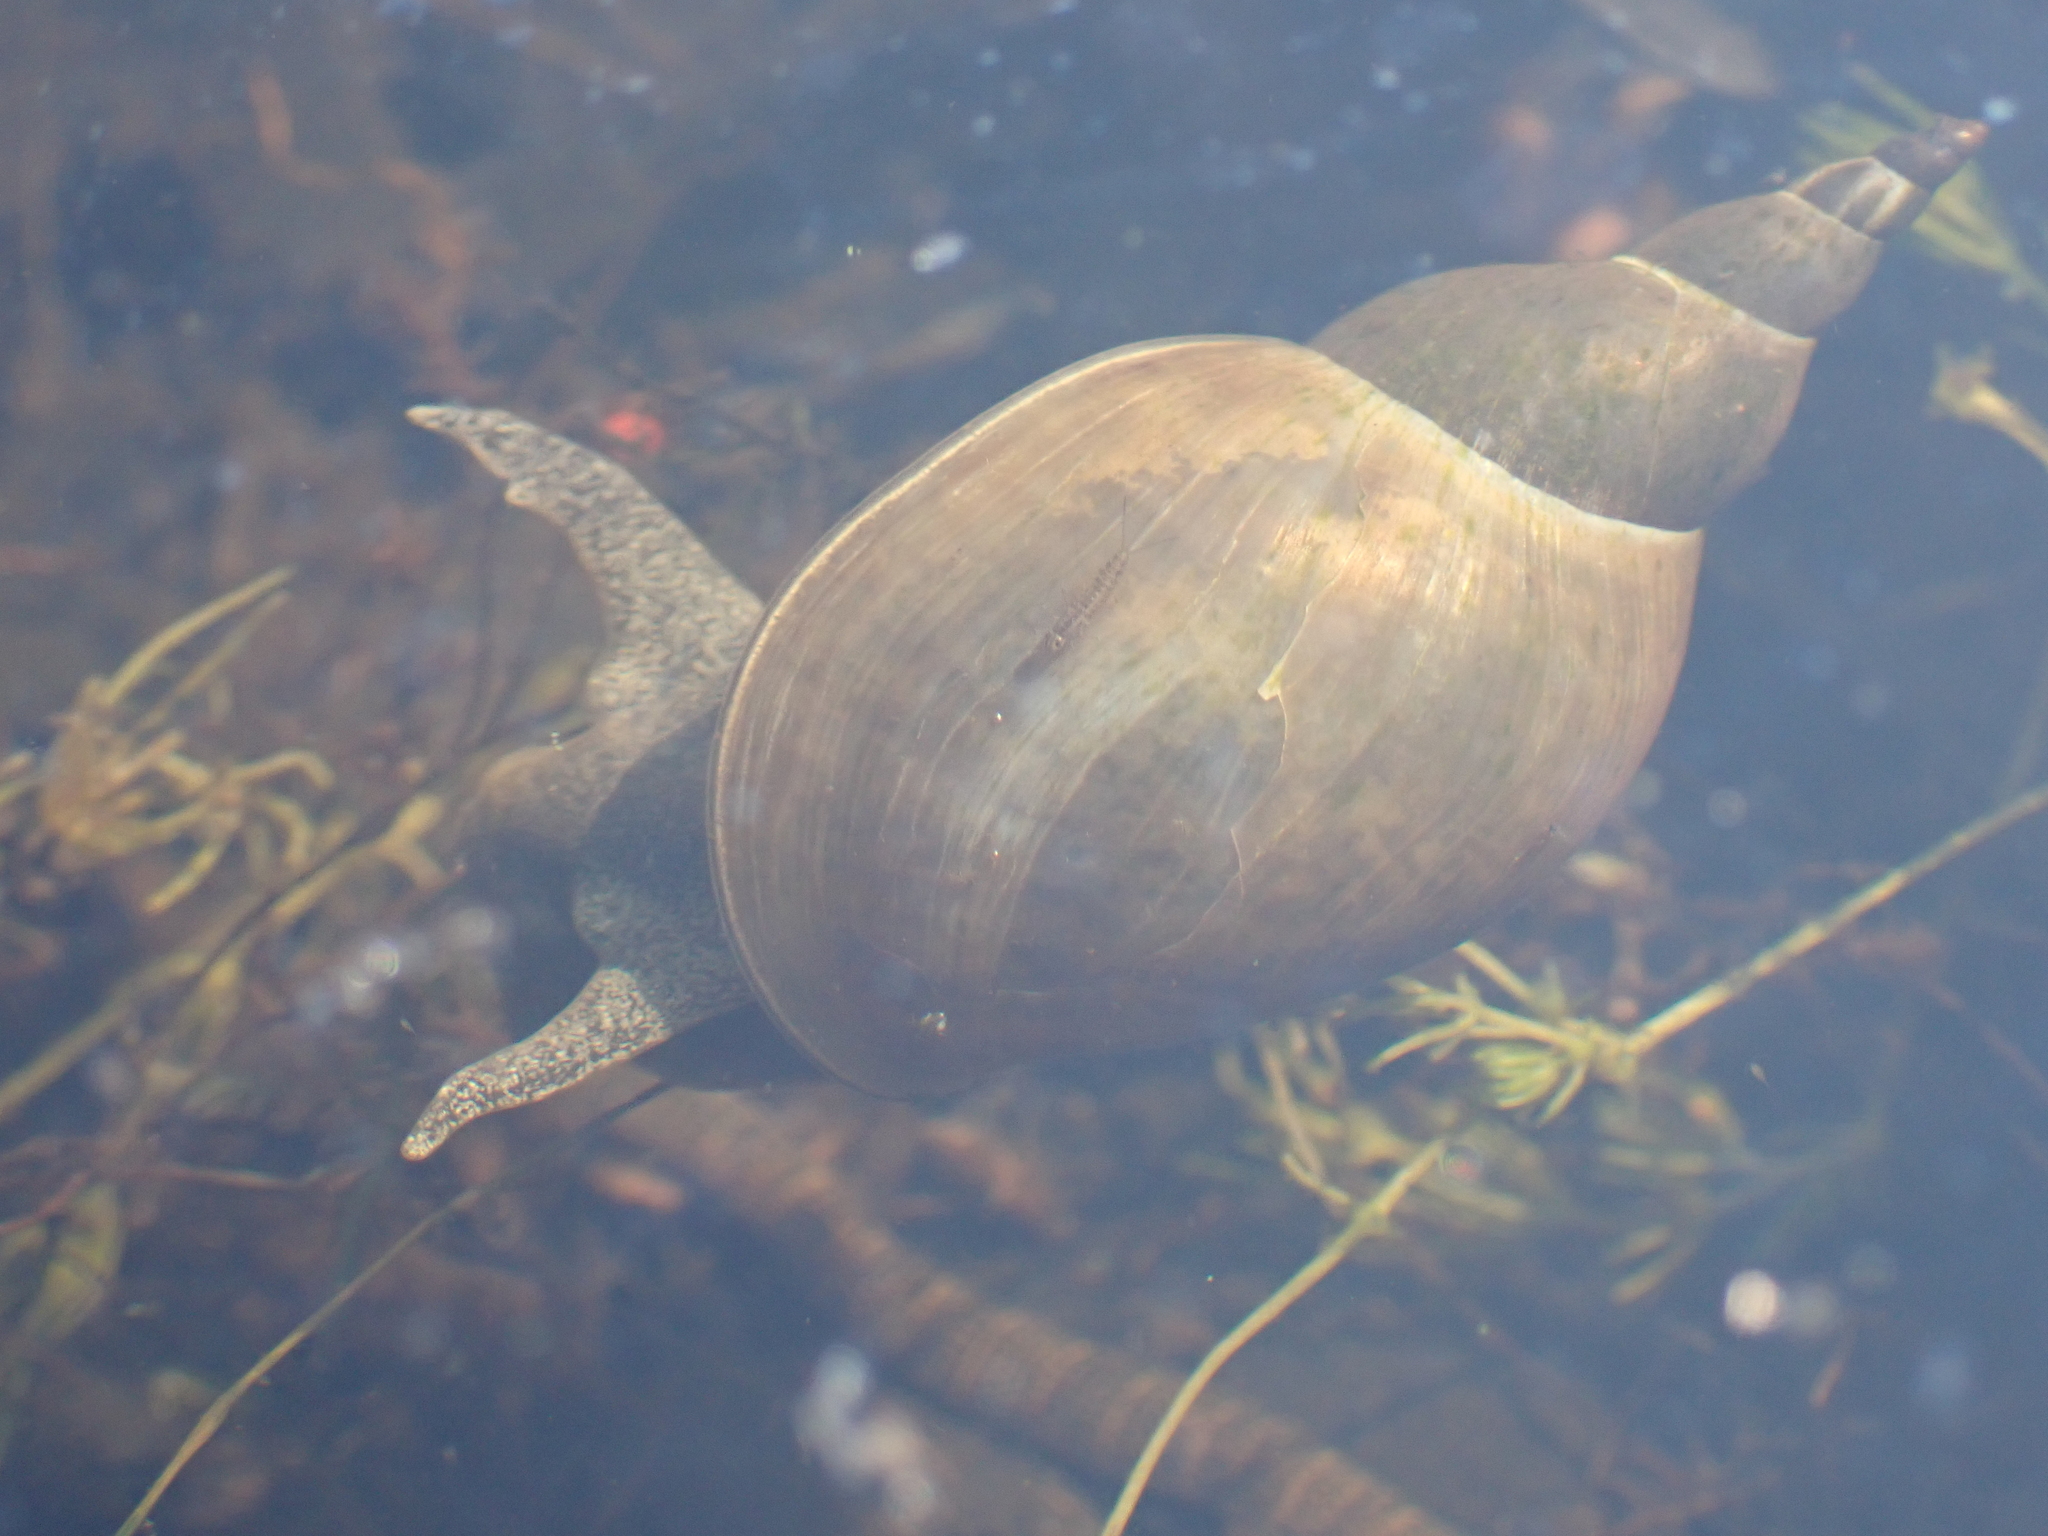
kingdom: Animalia
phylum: Mollusca
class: Gastropoda
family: Lymnaeidae
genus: Lymnaea
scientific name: Lymnaea stagnalis
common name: Great pond snail
